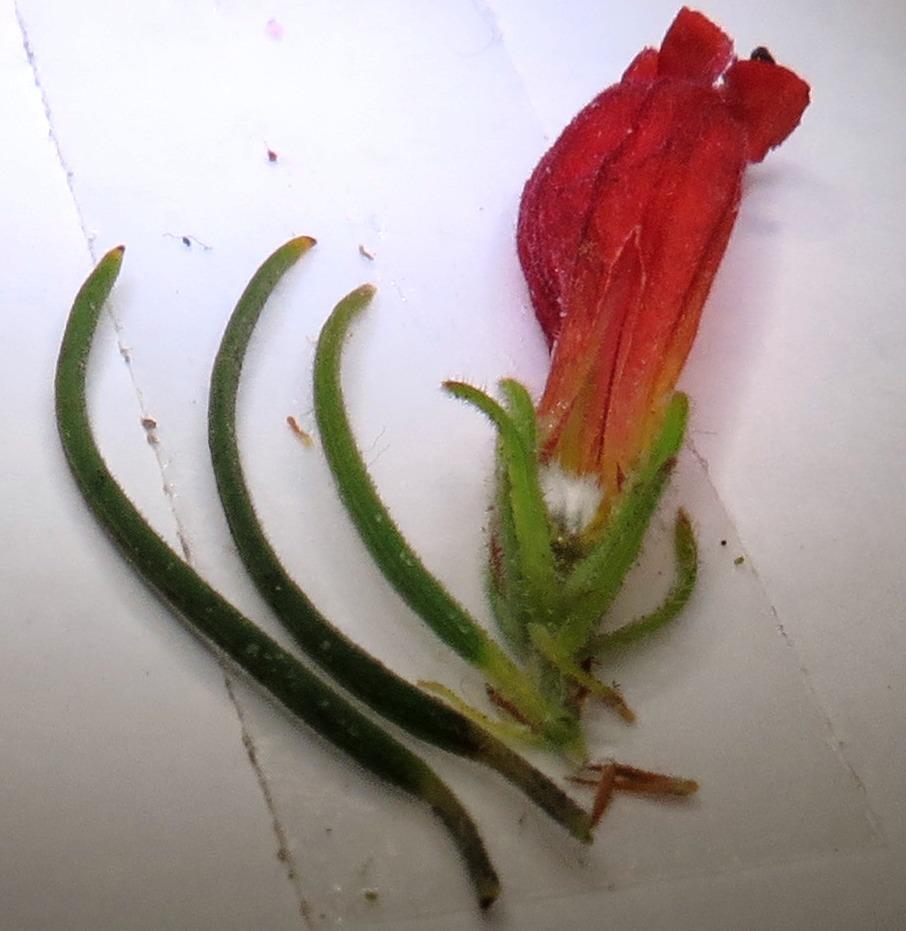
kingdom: Plantae
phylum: Tracheophyta
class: Magnoliopsida
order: Ericales
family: Ericaceae
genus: Erica
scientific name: Erica viscaria
